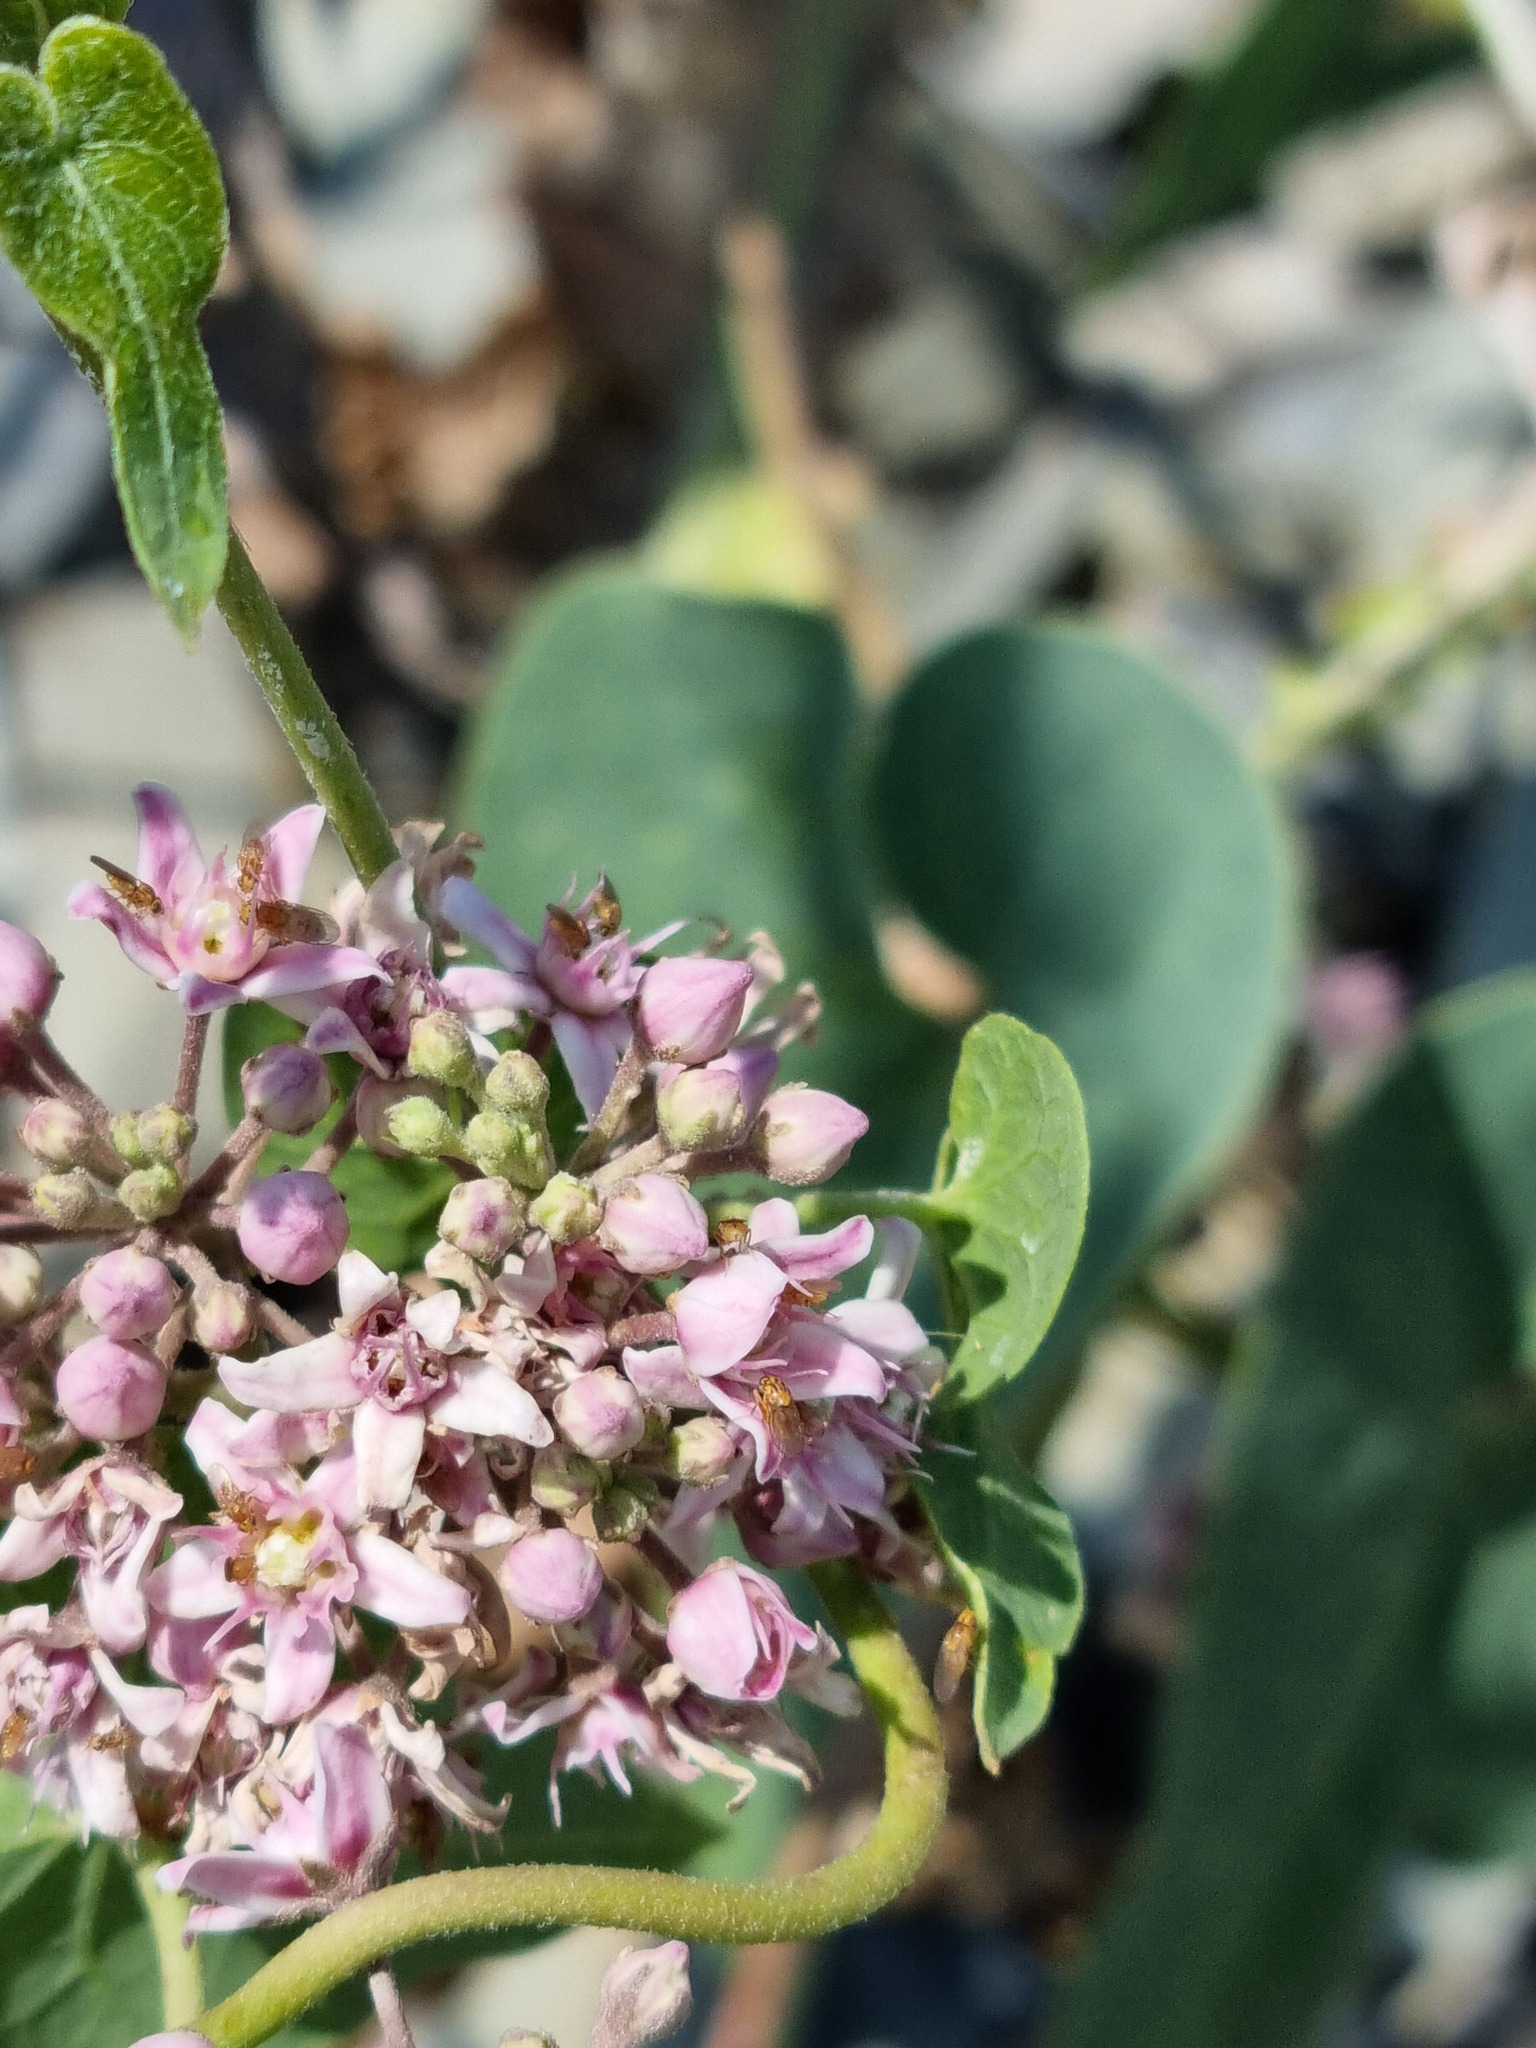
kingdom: Plantae
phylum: Tracheophyta
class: Magnoliopsida
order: Gentianales
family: Apocynaceae
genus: Cynanchum
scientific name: Cynanchum acutum
